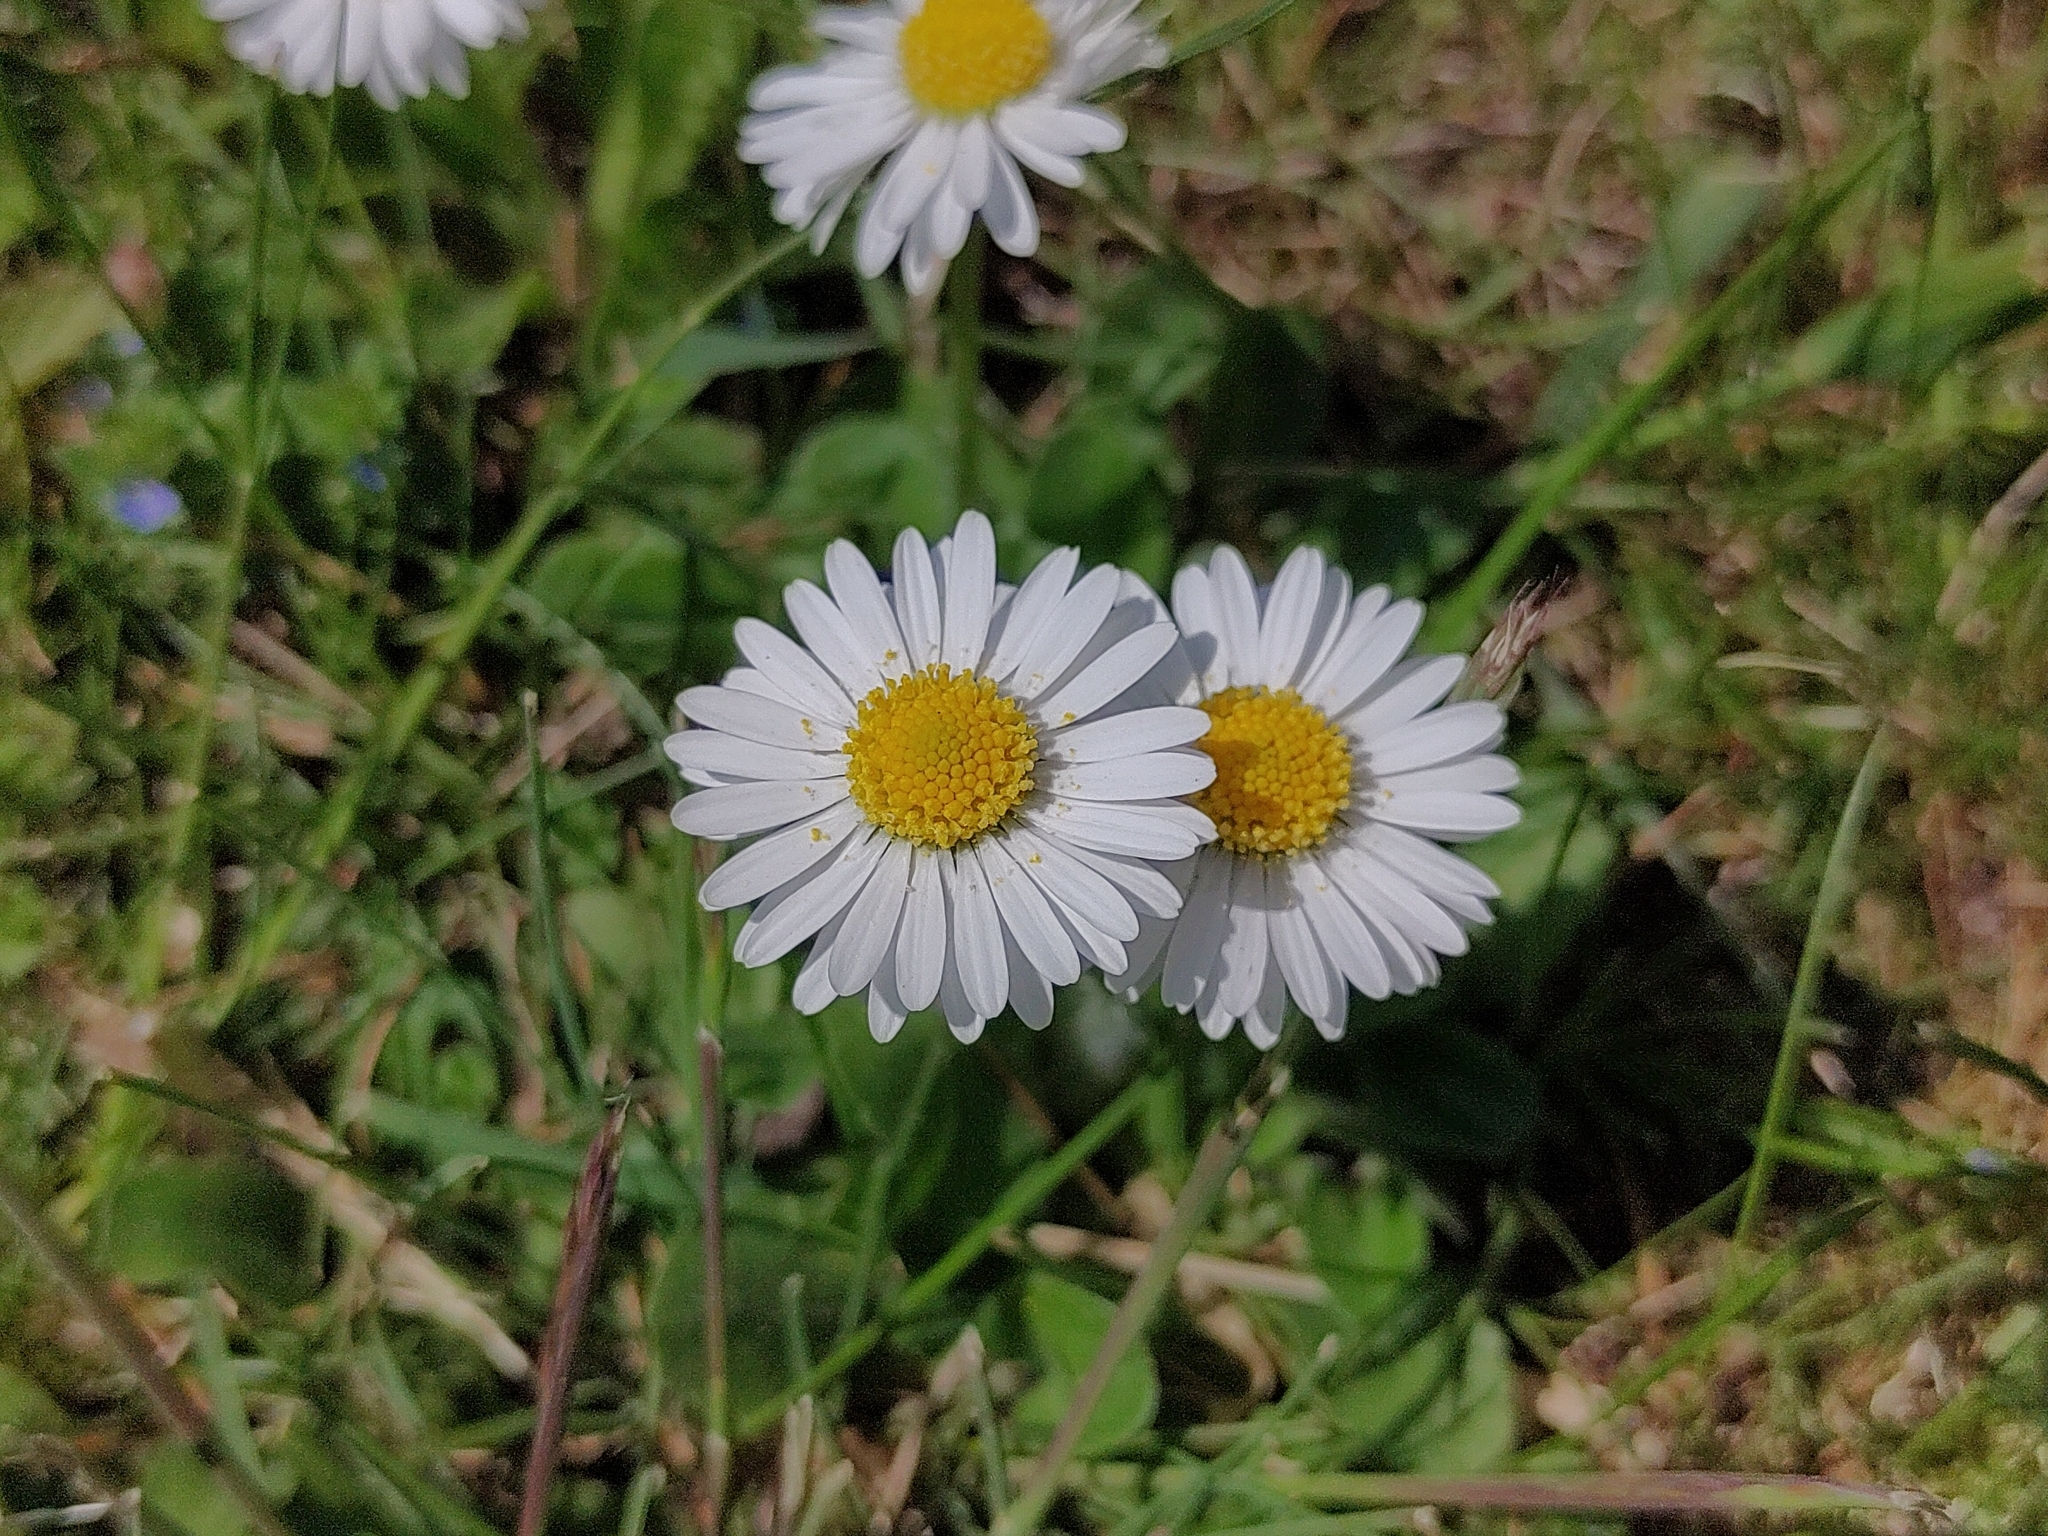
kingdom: Plantae
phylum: Tracheophyta
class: Magnoliopsida
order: Asterales
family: Asteraceae
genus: Bellis
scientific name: Bellis perennis
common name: Lawndaisy
